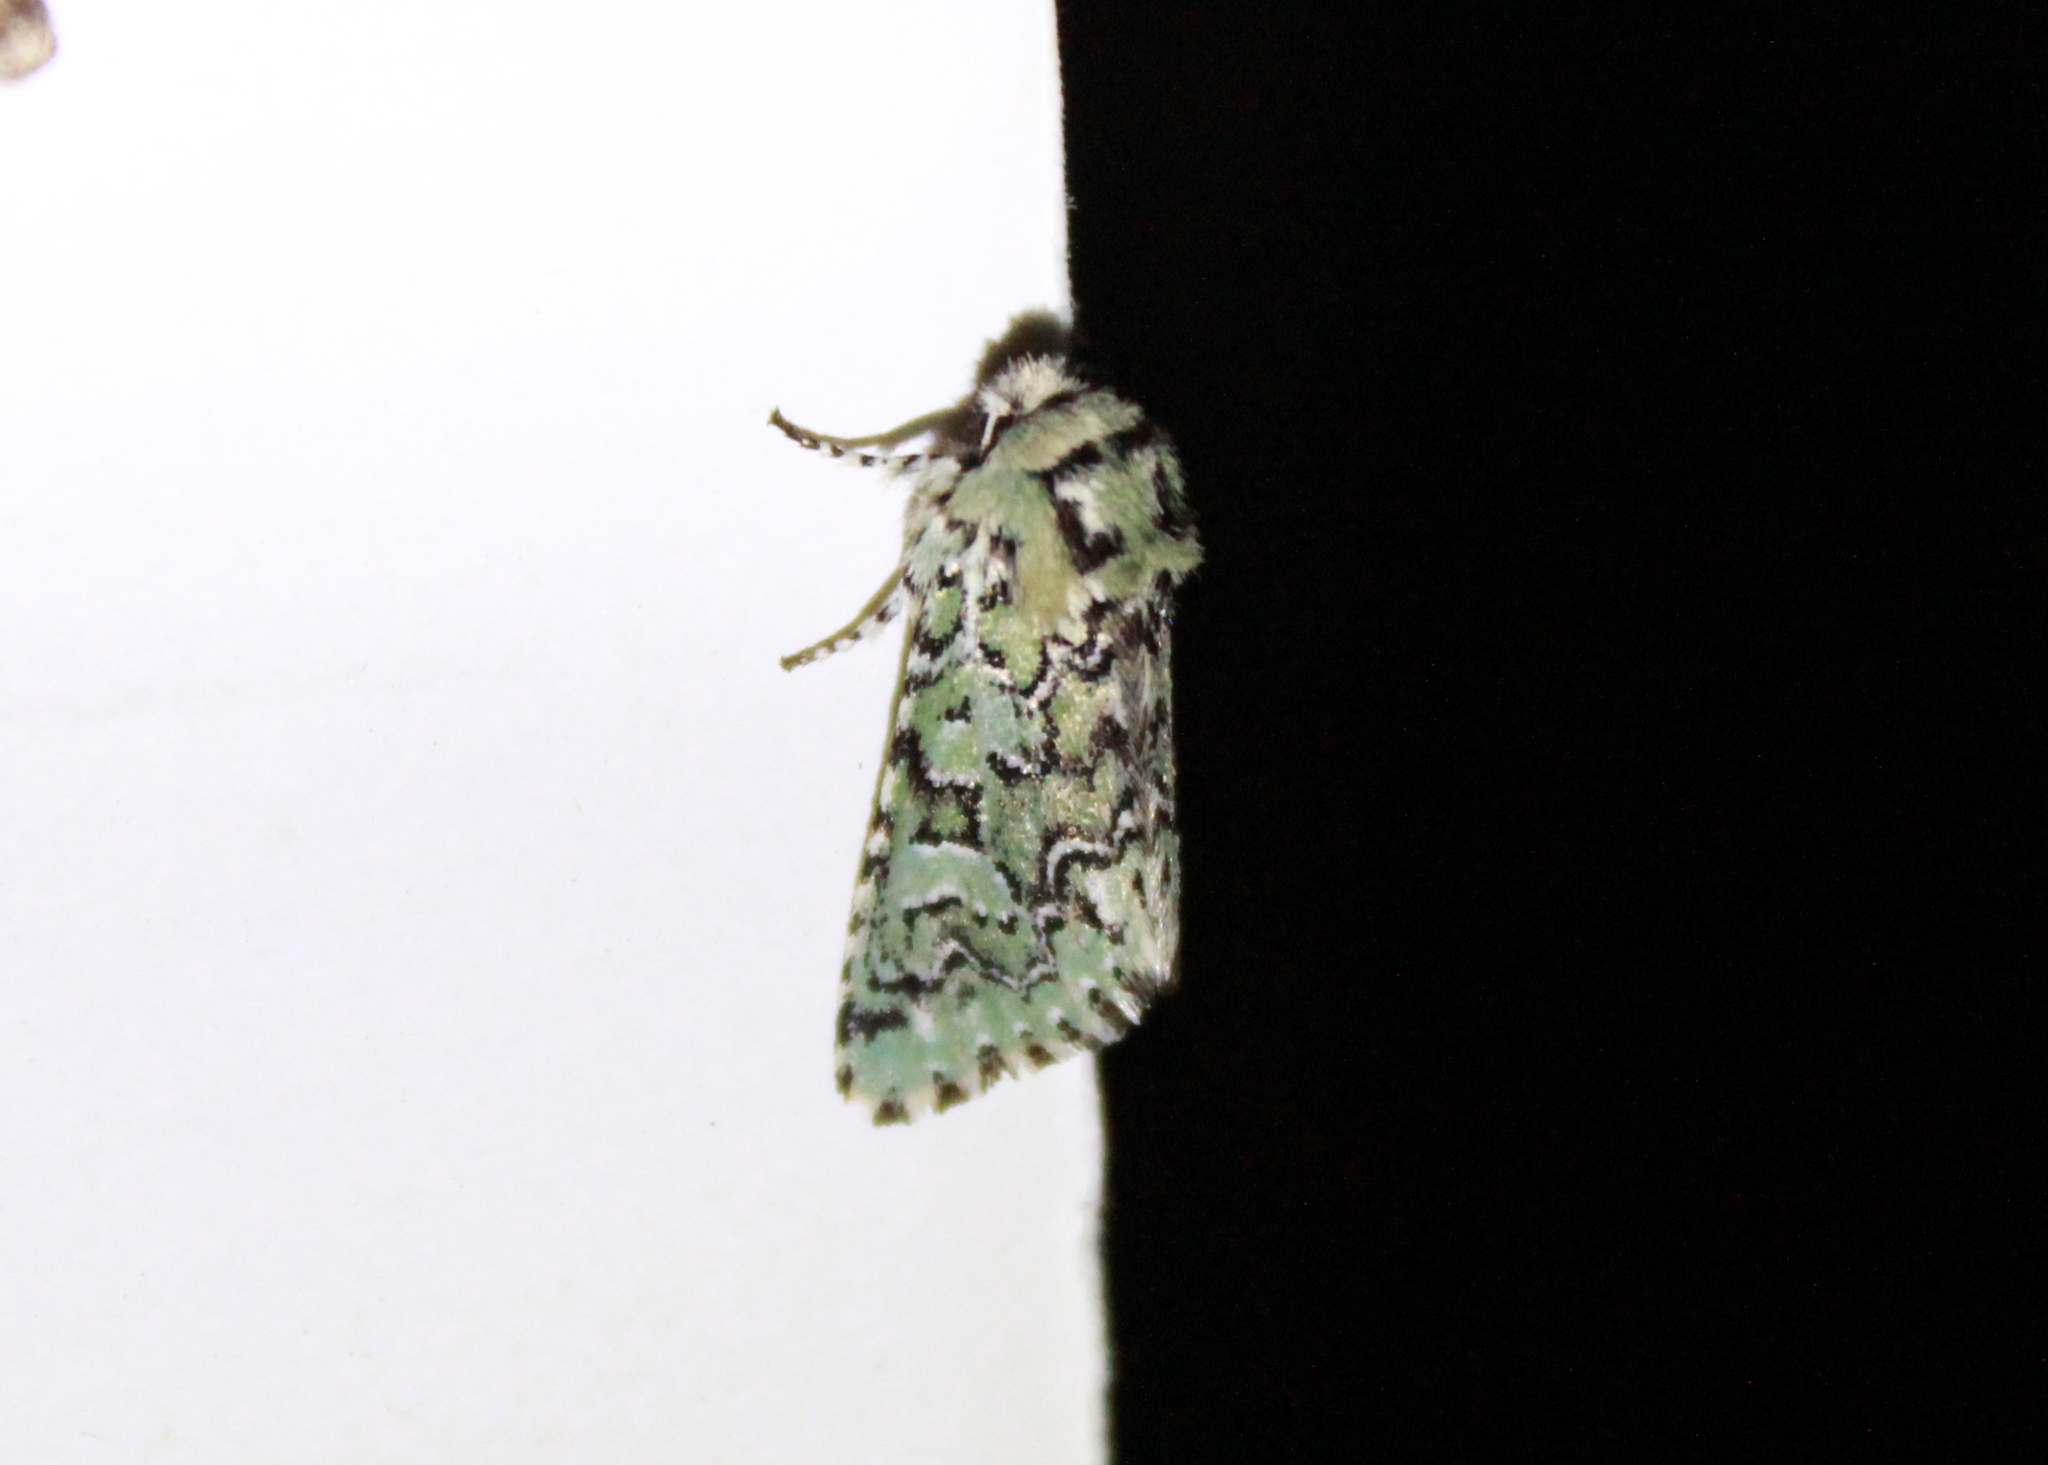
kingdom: Animalia
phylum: Arthropoda
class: Insecta
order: Lepidoptera
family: Noctuidae
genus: Feralia
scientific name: Feralia jocosa
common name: Joker
